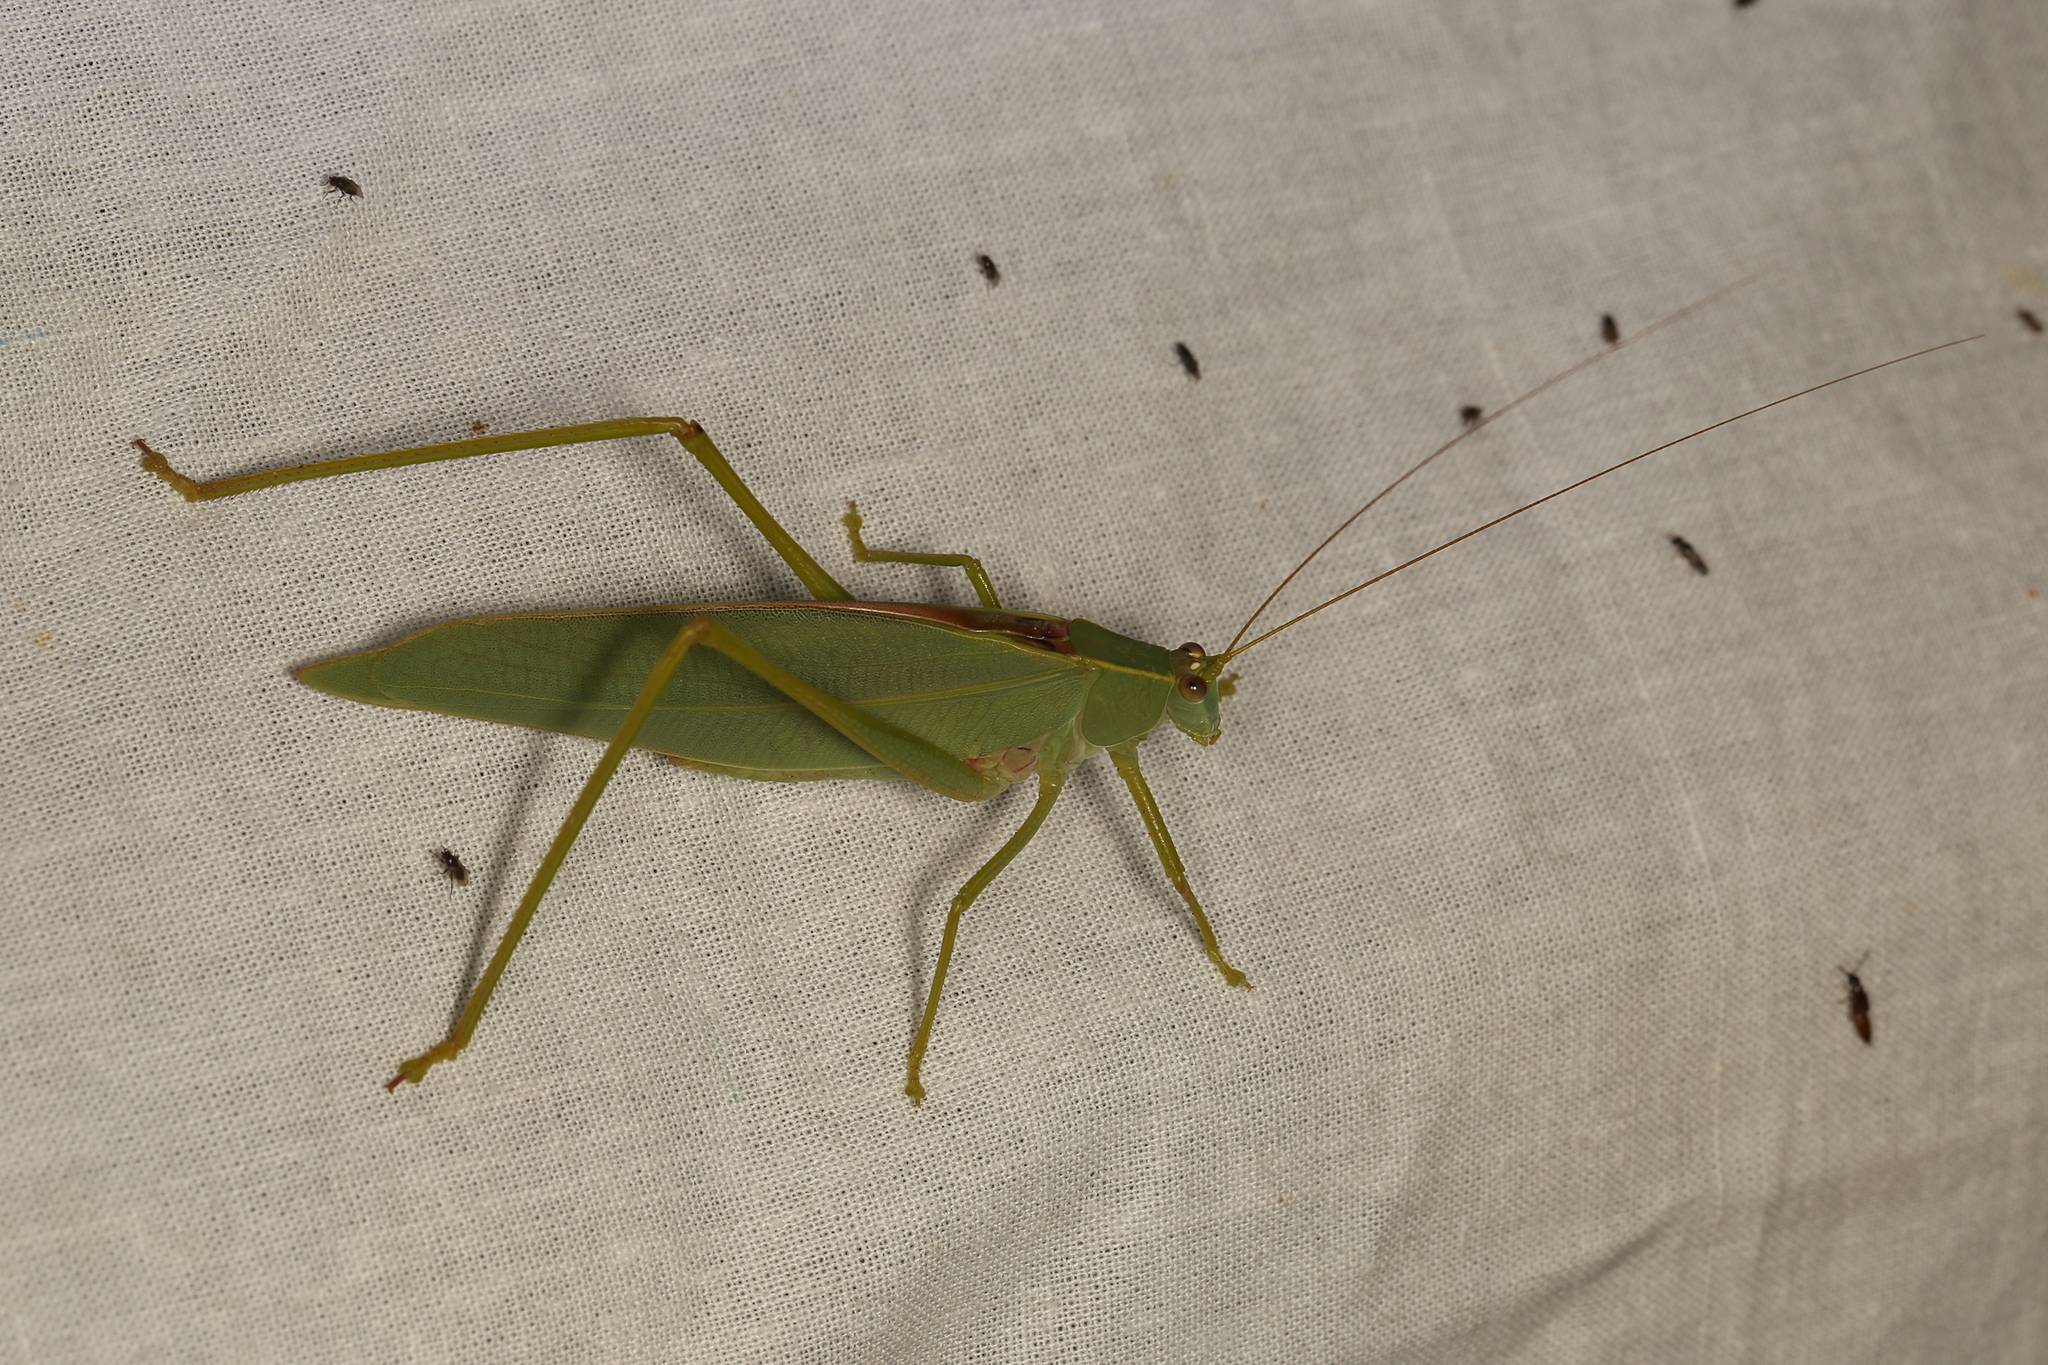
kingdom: Animalia
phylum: Arthropoda
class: Insecta
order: Orthoptera
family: Tettigoniidae
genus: Torbia
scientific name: Torbia viridissima
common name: Non-predaceous gum leaf katydid
